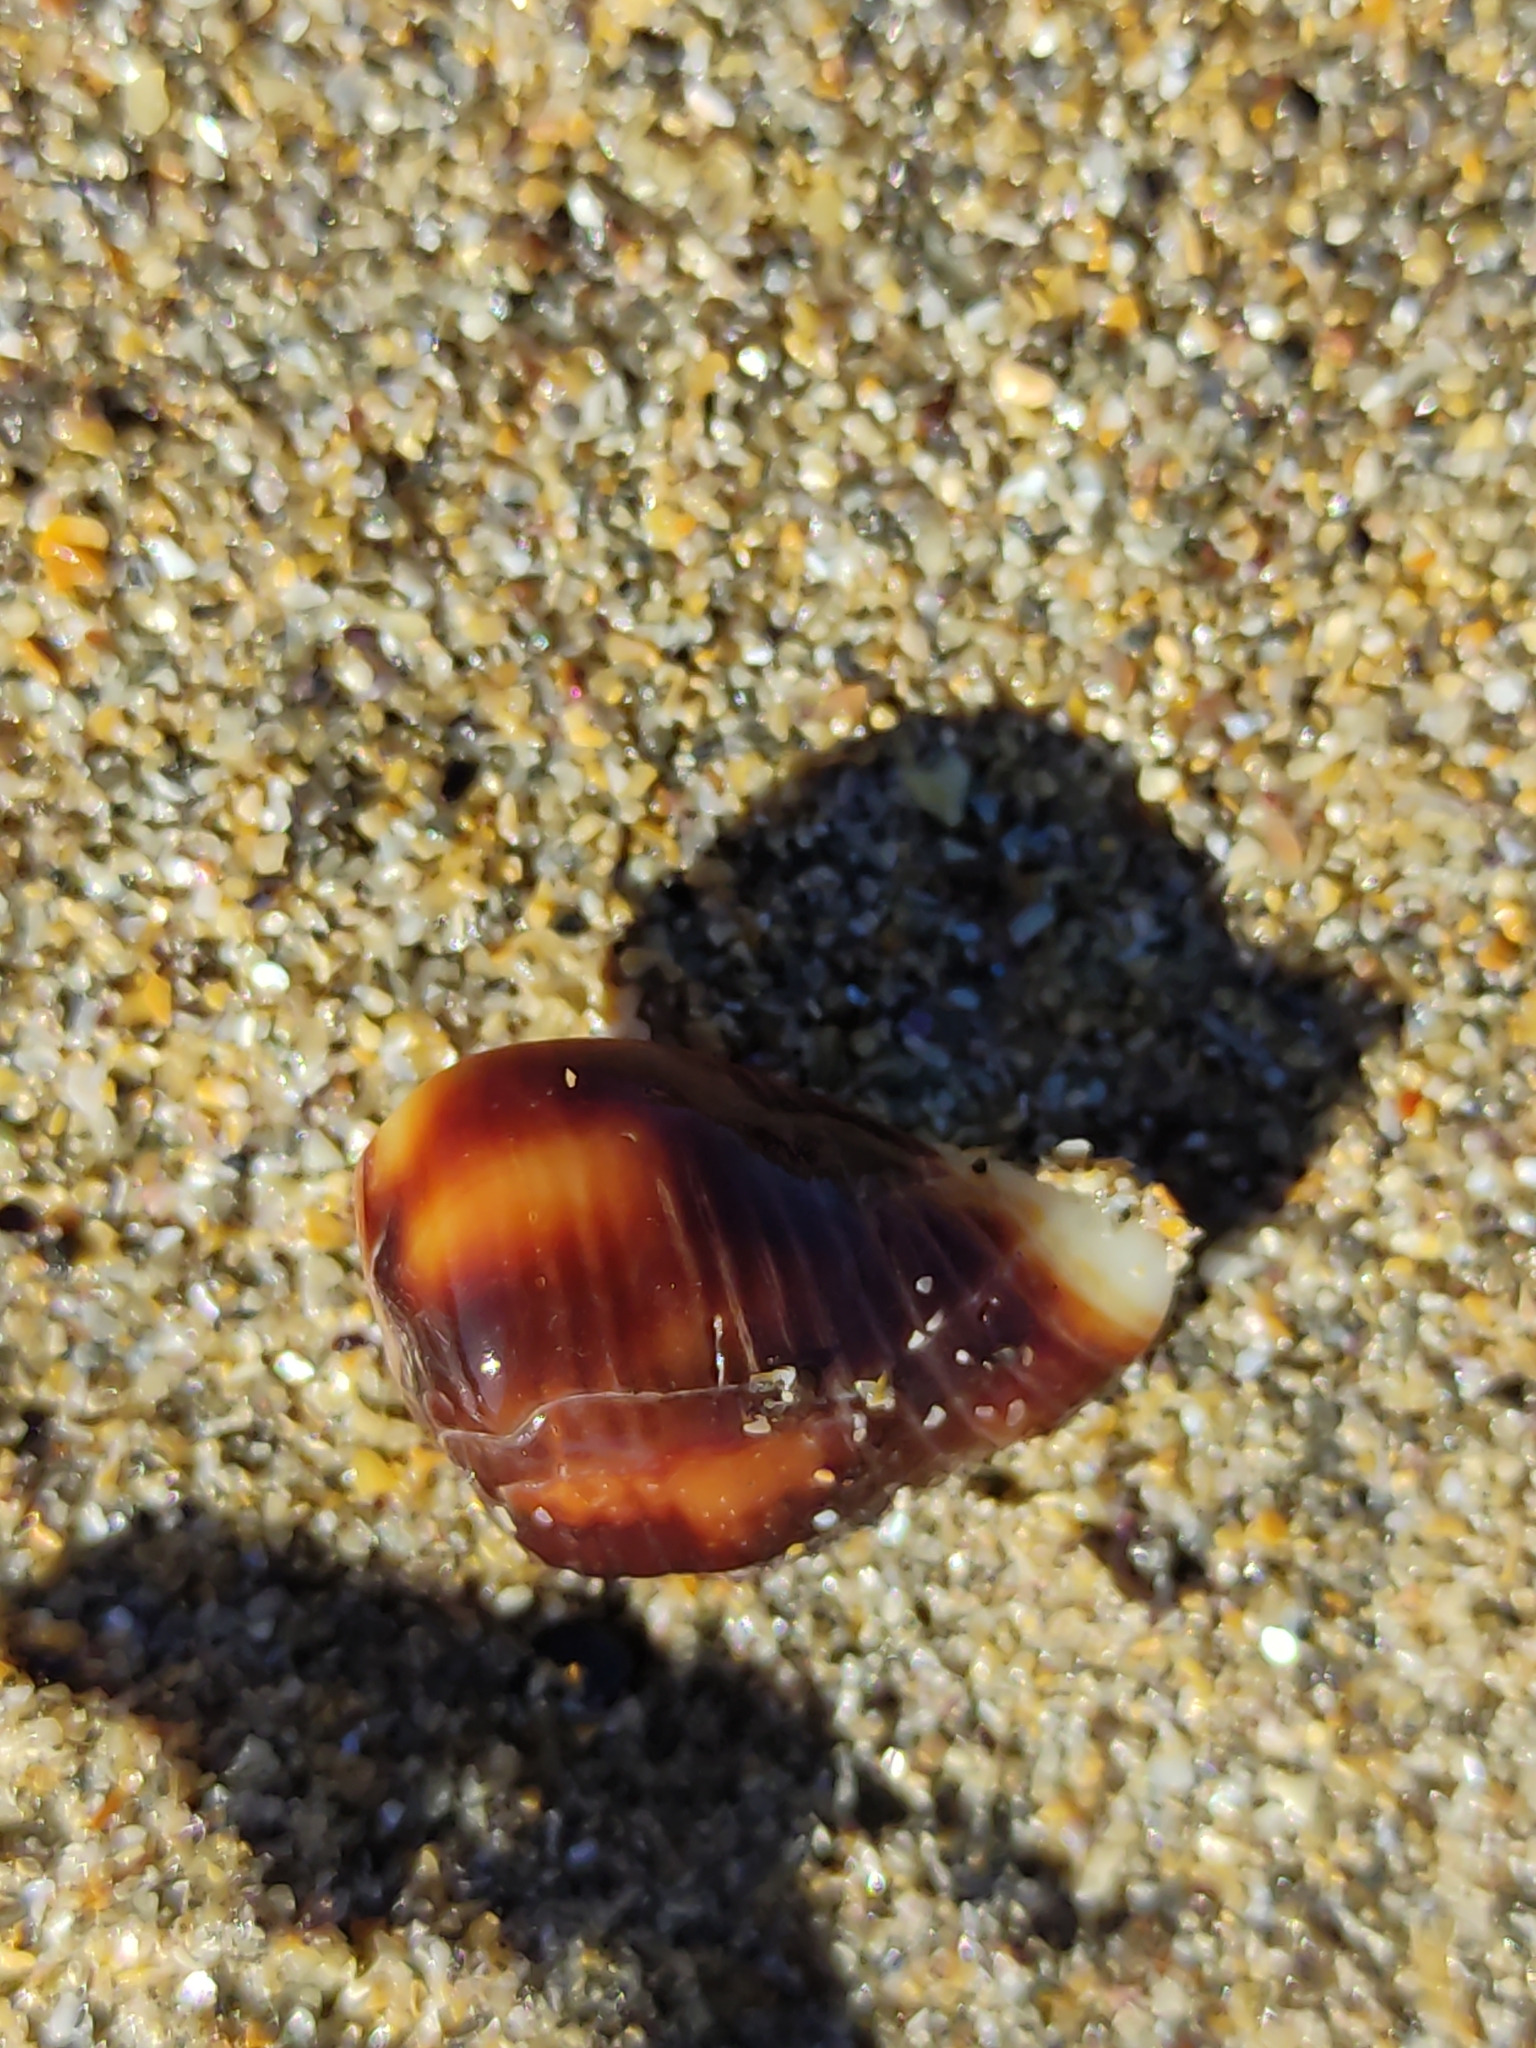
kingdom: Animalia
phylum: Mollusca
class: Gastropoda
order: Neogastropoda
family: Muricidae
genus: Haustrum
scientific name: Haustrum haustorium
